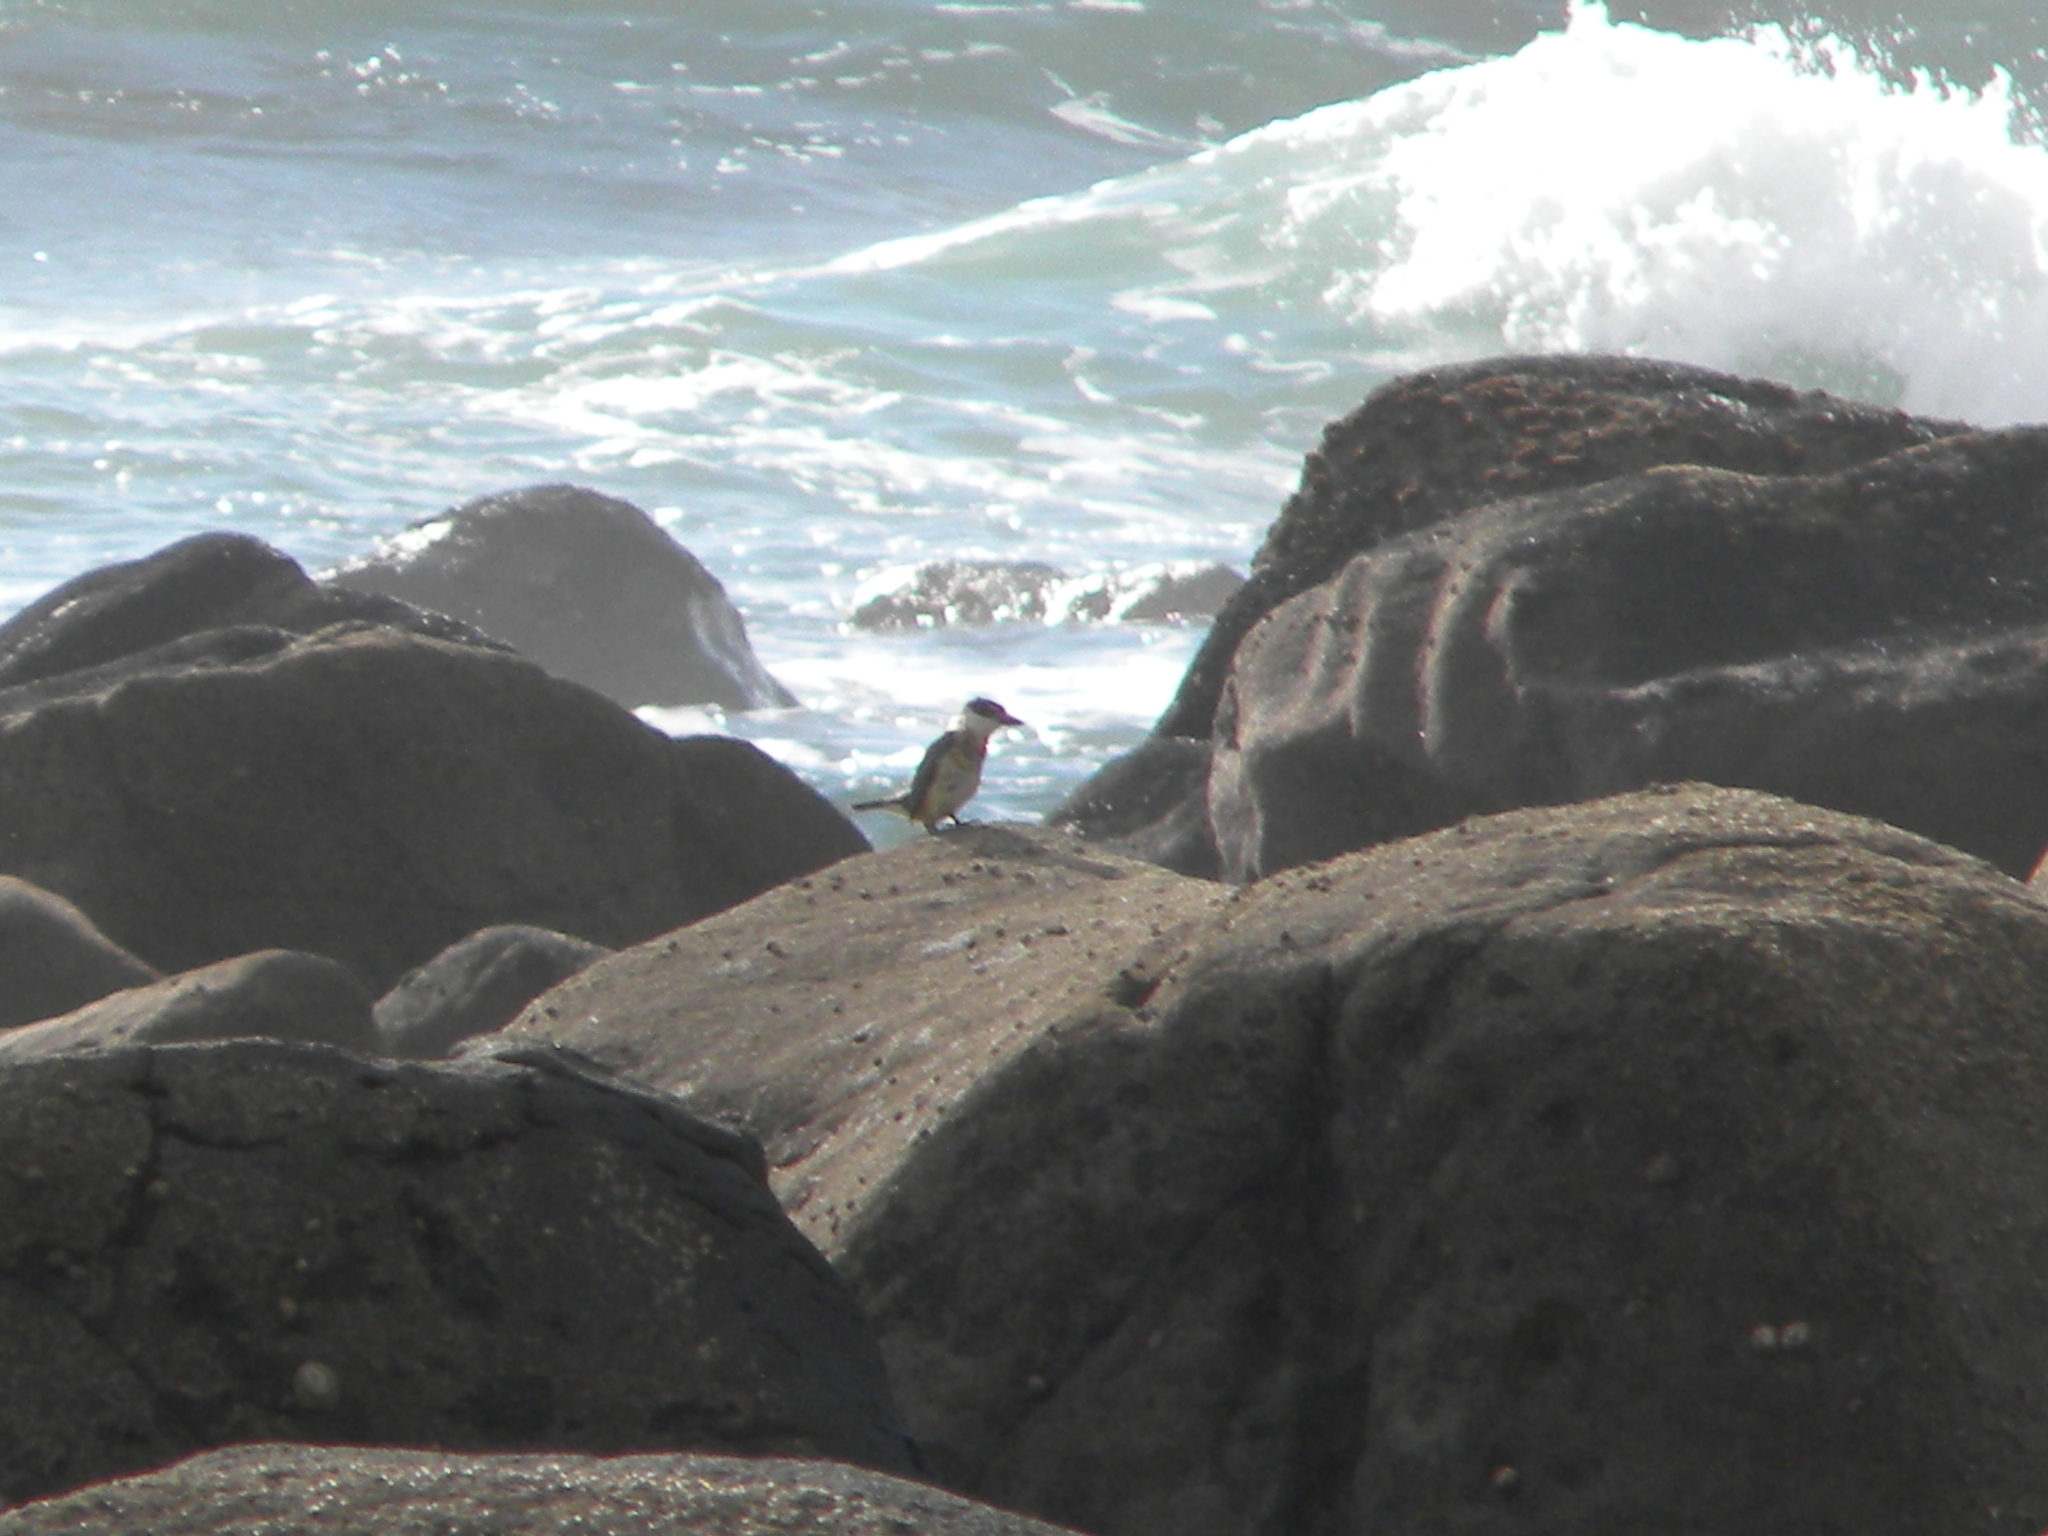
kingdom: Animalia
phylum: Chordata
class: Aves
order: Coraciiformes
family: Alcedinidae
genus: Todiramphus
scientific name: Todiramphus sanctus
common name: Sacred kingfisher
